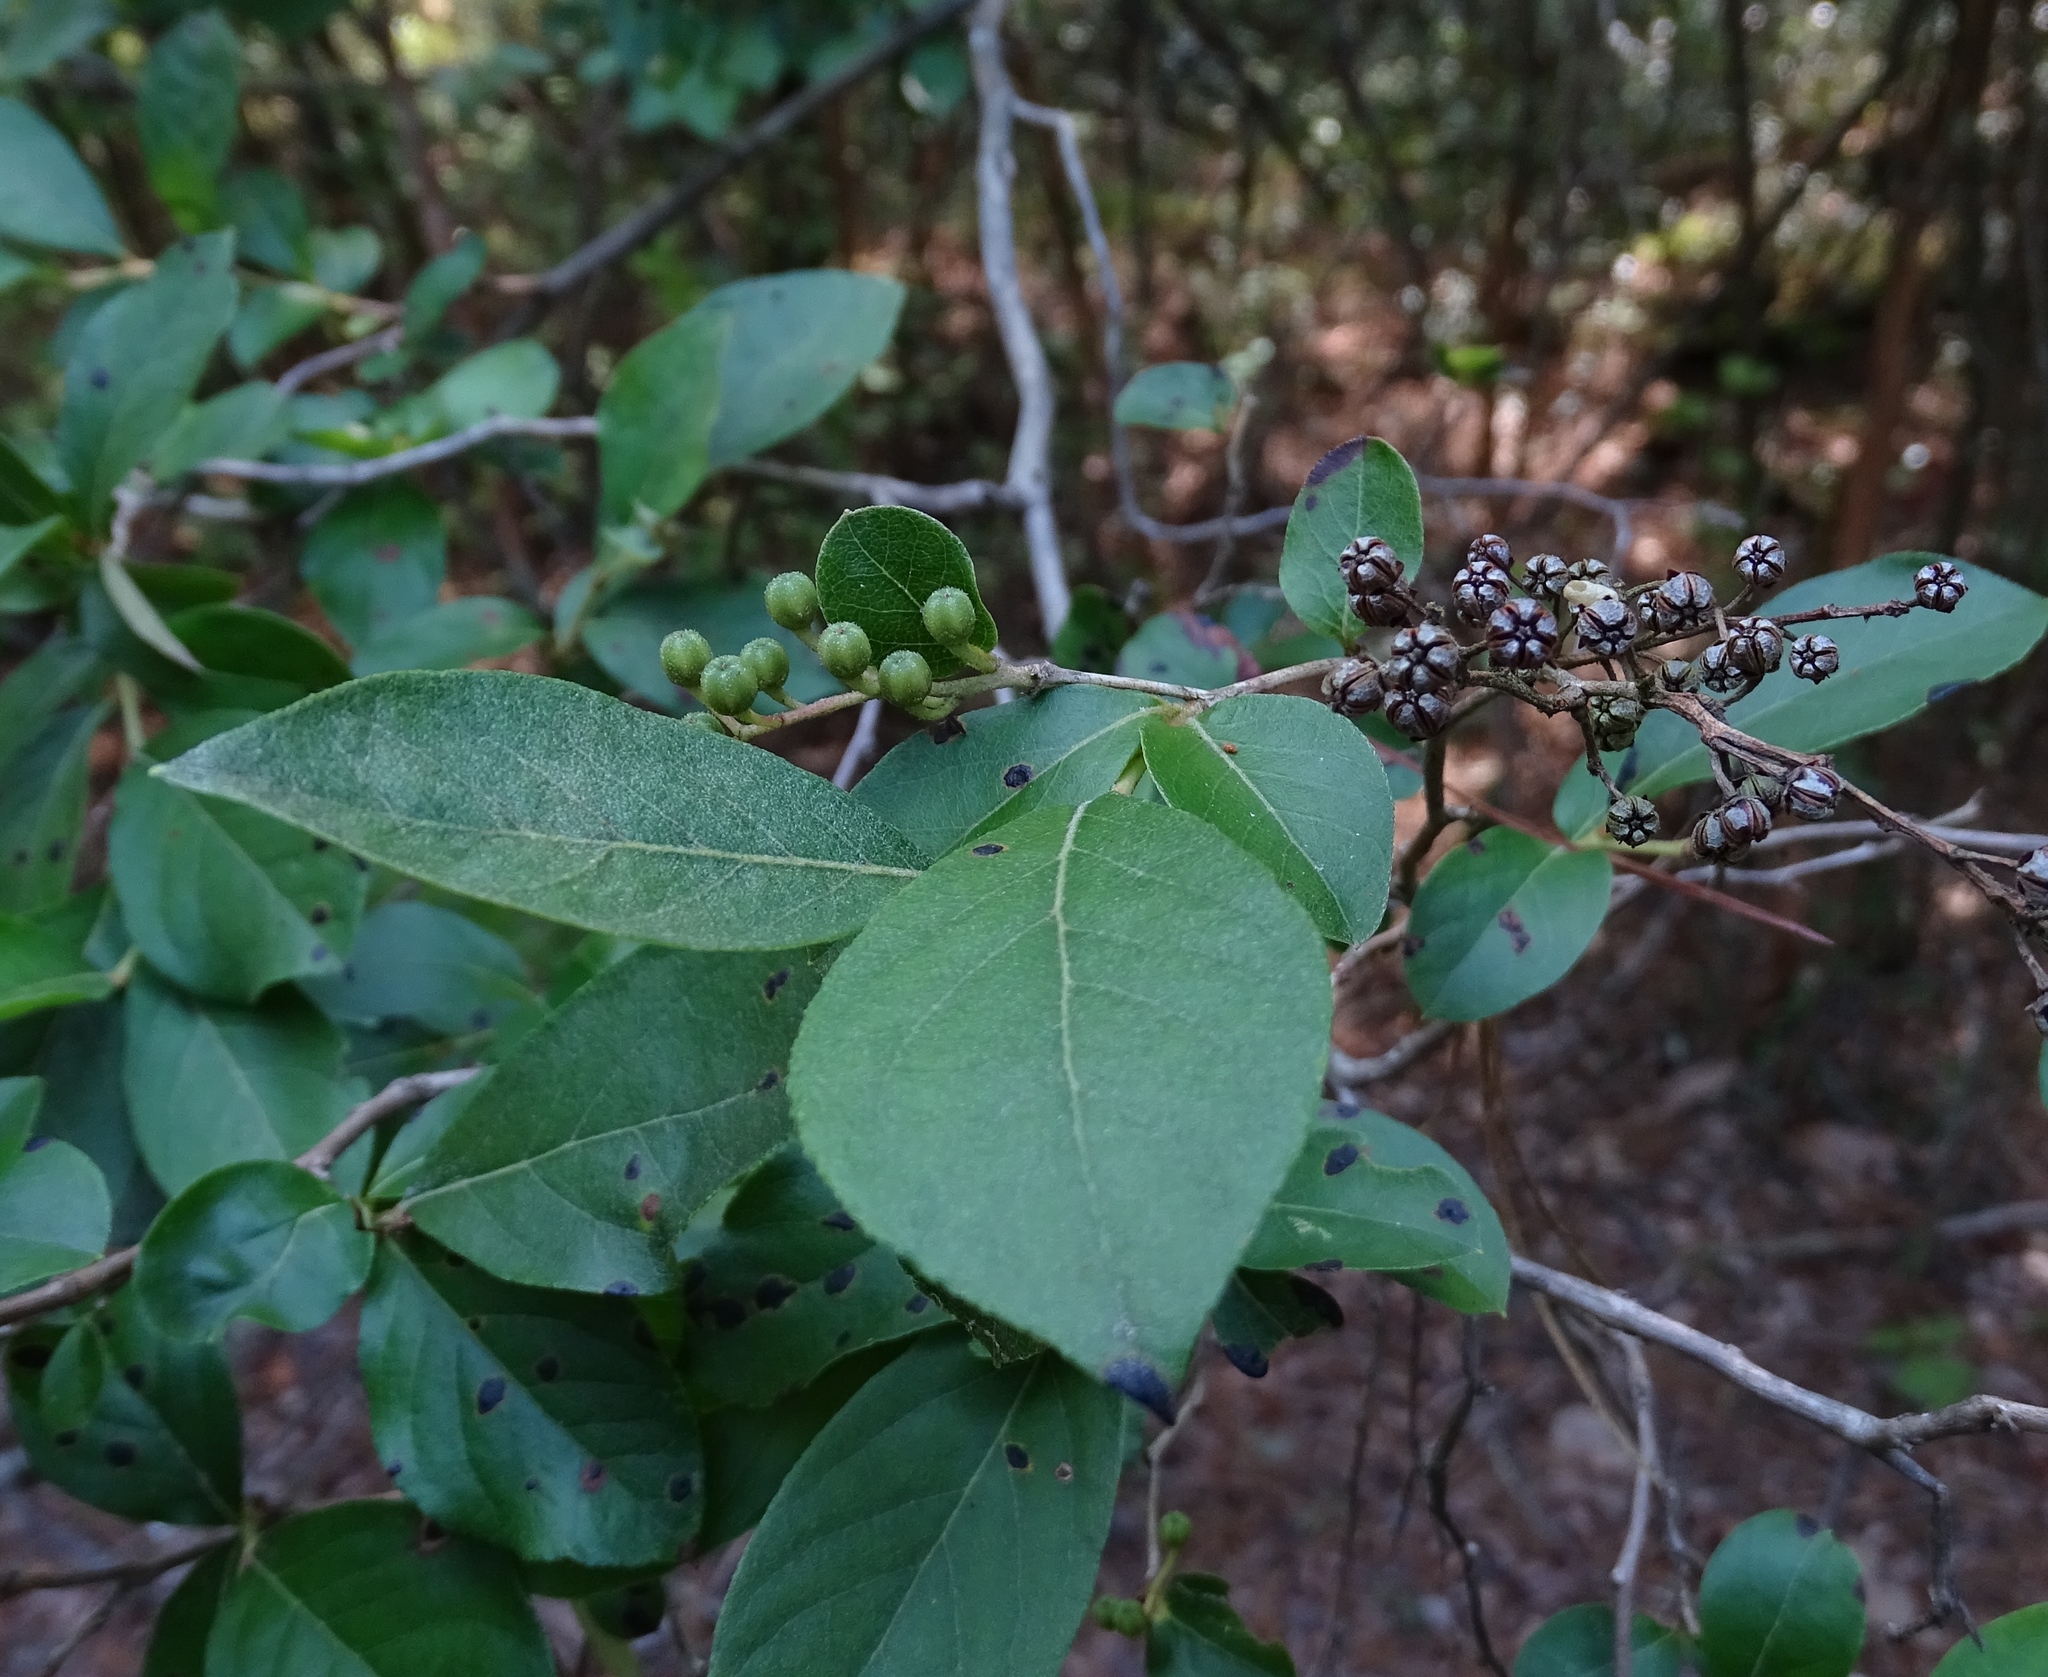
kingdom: Plantae
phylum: Tracheophyta
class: Magnoliopsida
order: Ericales
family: Ericaceae
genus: Lyonia
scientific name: Lyonia ligustrina
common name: Maleberry
